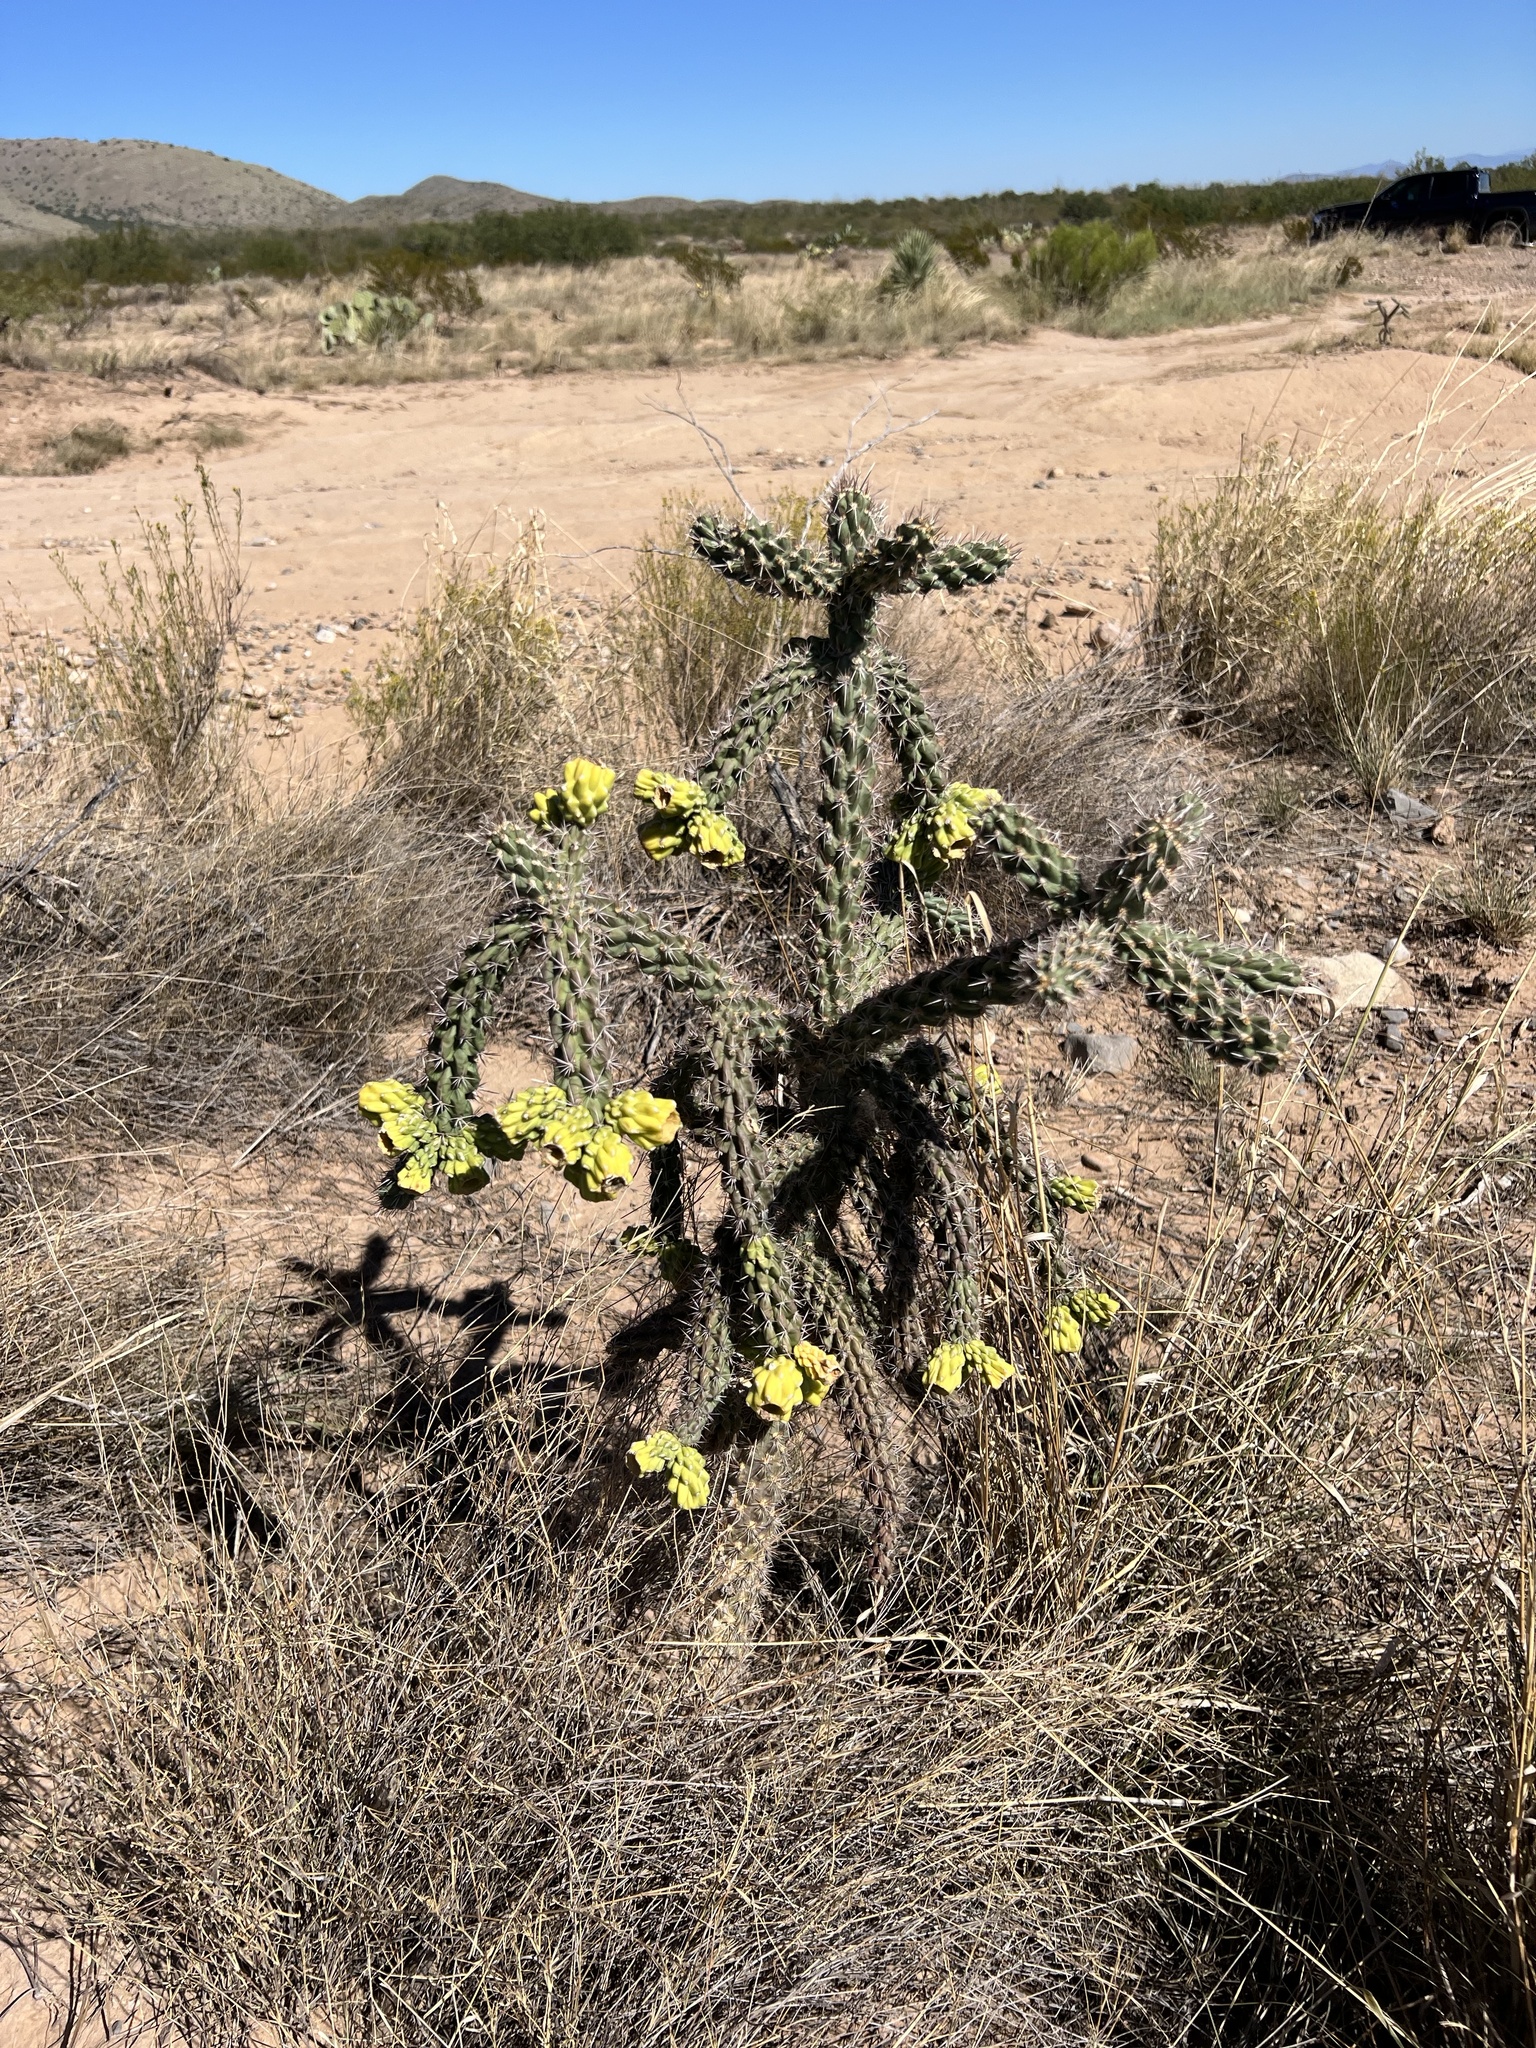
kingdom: Plantae
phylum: Tracheophyta
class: Magnoliopsida
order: Caryophyllales
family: Cactaceae
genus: Cylindropuntia
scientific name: Cylindropuntia imbricata
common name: Candelabrum cactus
